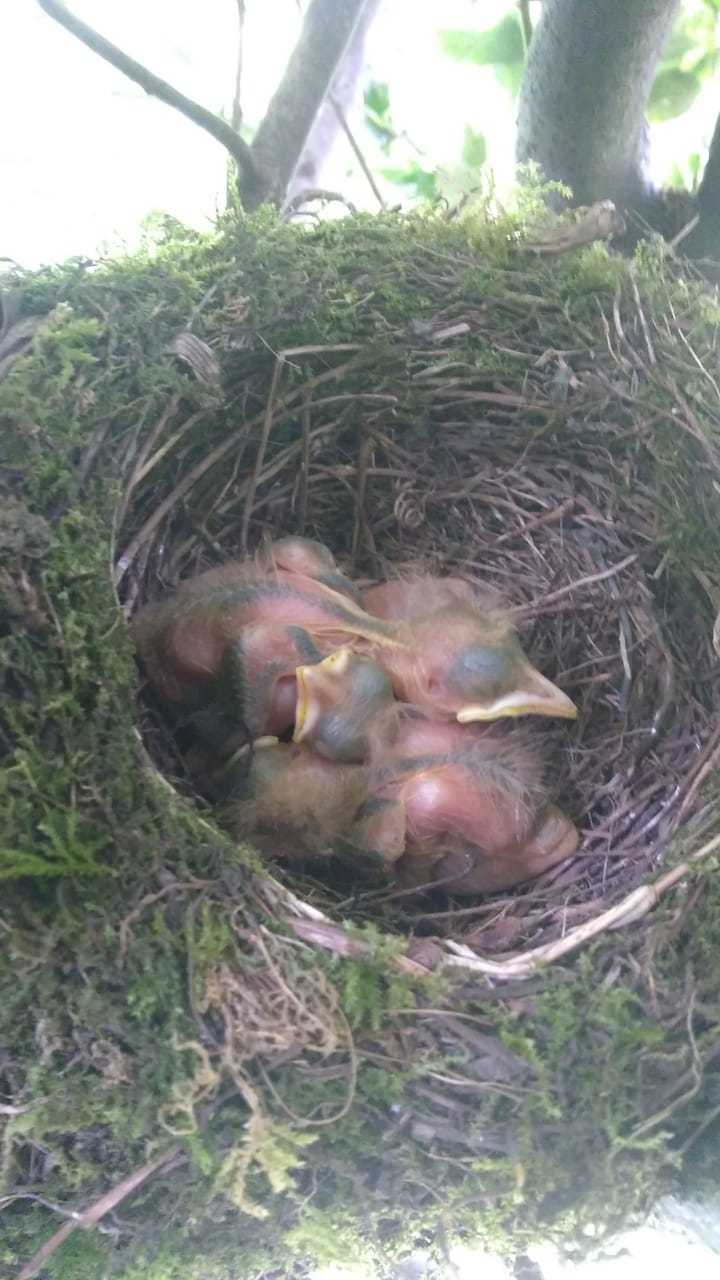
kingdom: Animalia
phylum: Chordata
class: Aves
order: Passeriformes
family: Turdidae
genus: Turdus
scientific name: Turdus rufiventris
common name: Rufous-bellied thrush
